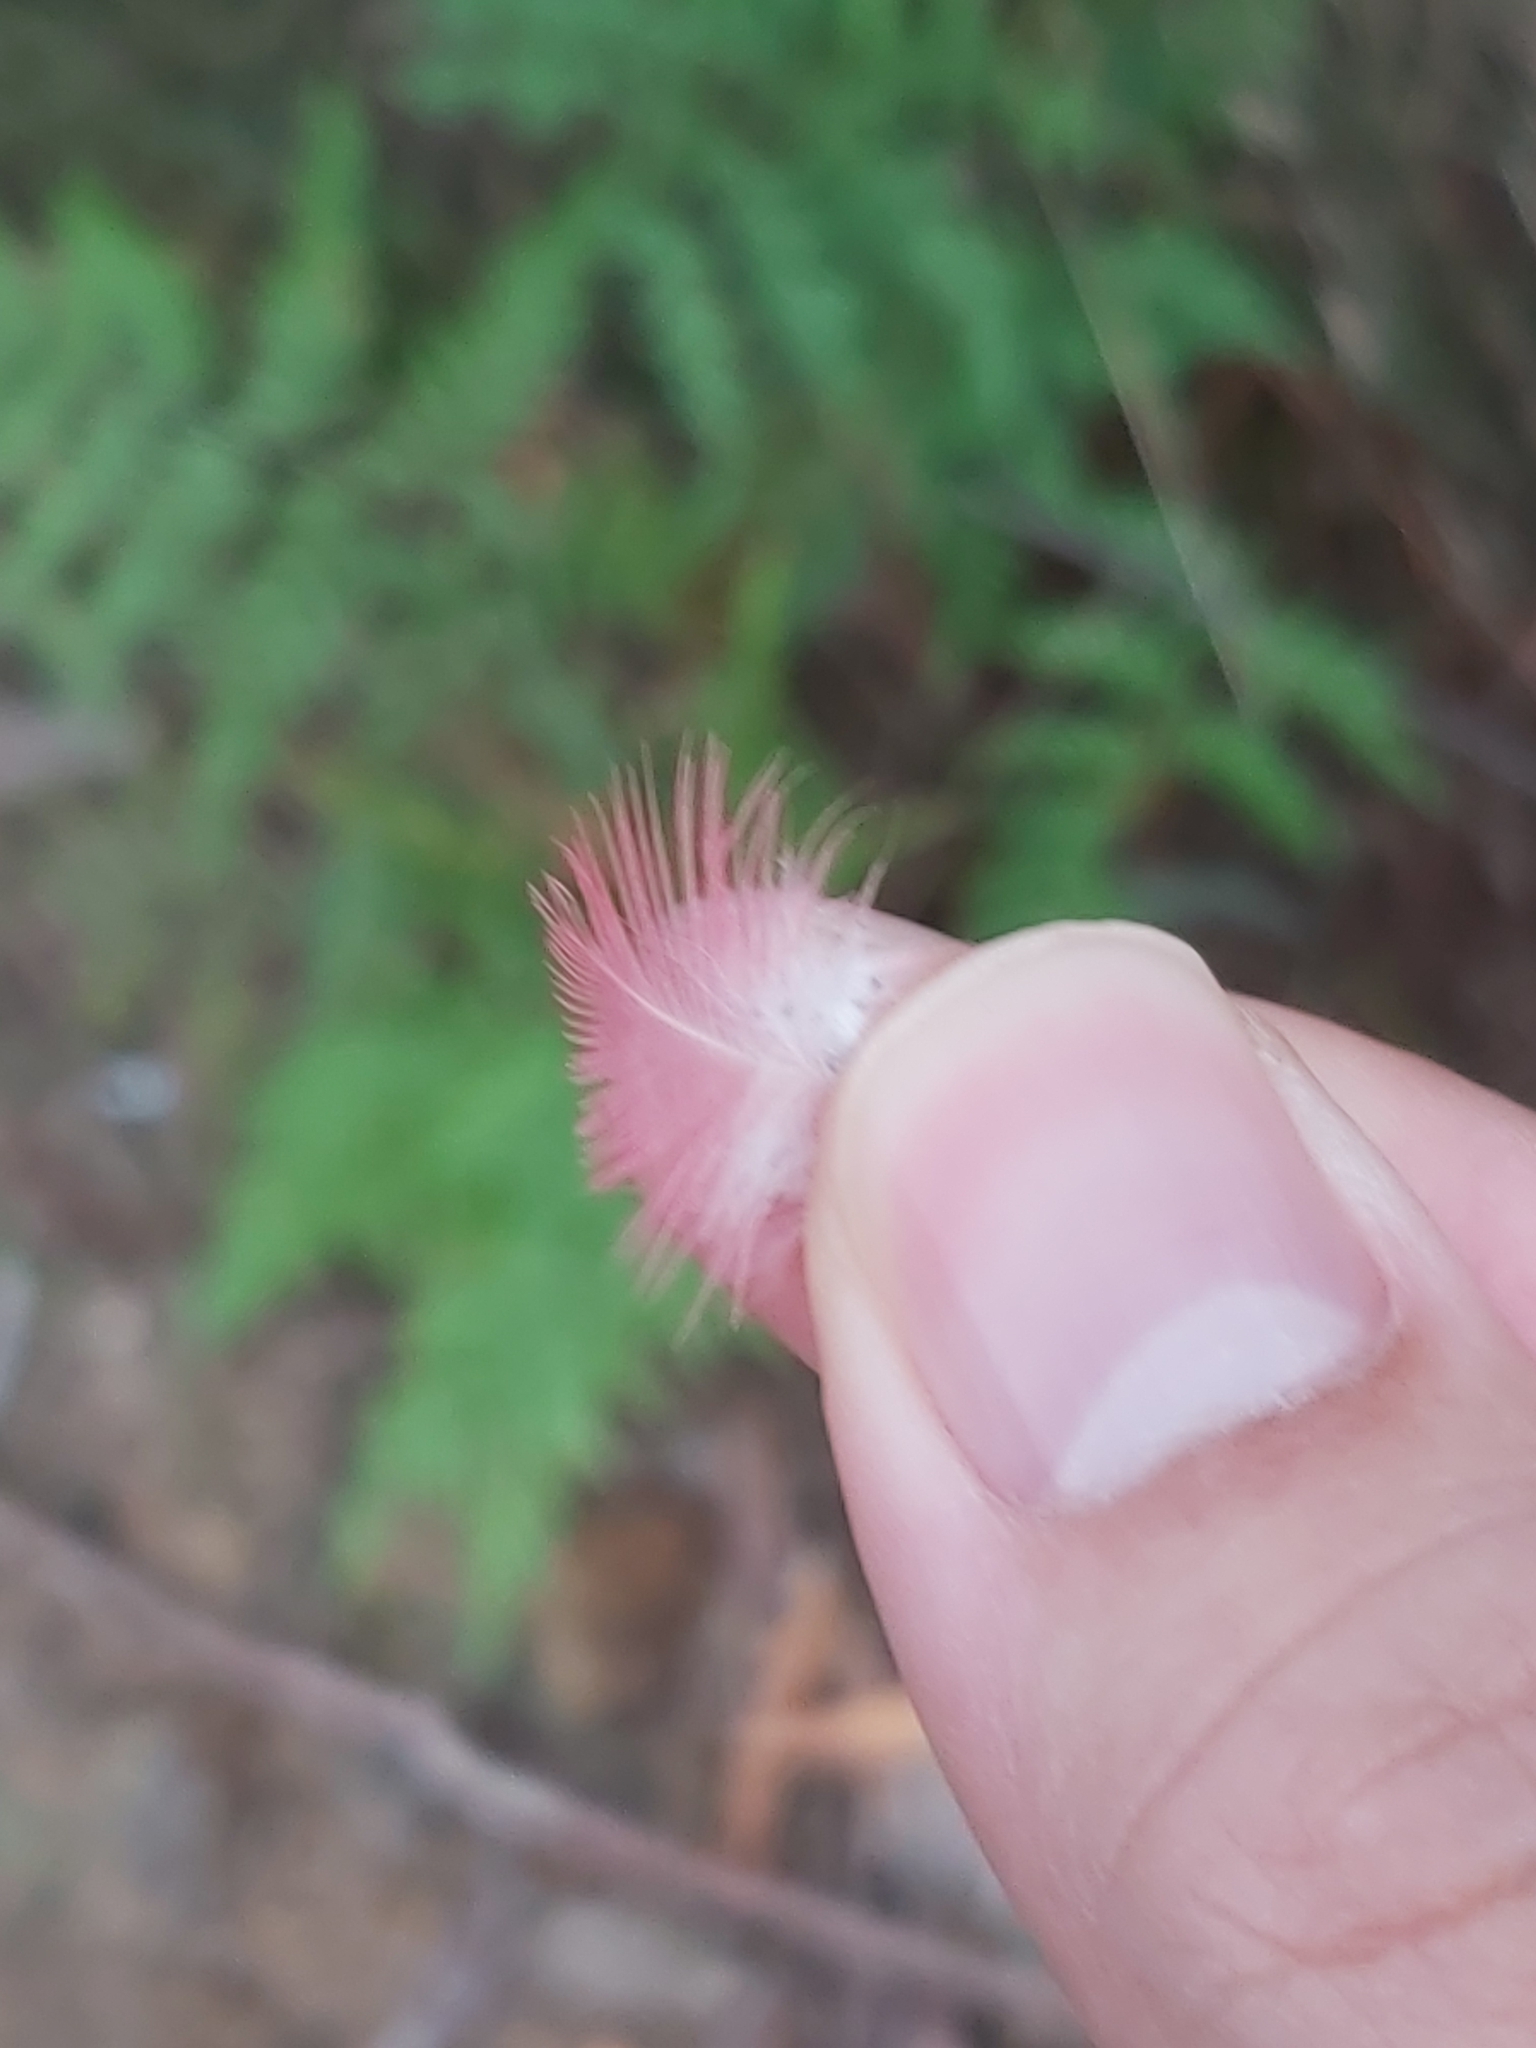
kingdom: Animalia
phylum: Chordata
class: Aves
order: Psittaciformes
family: Psittacidae
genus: Eolophus
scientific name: Eolophus roseicapilla
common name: Galah
